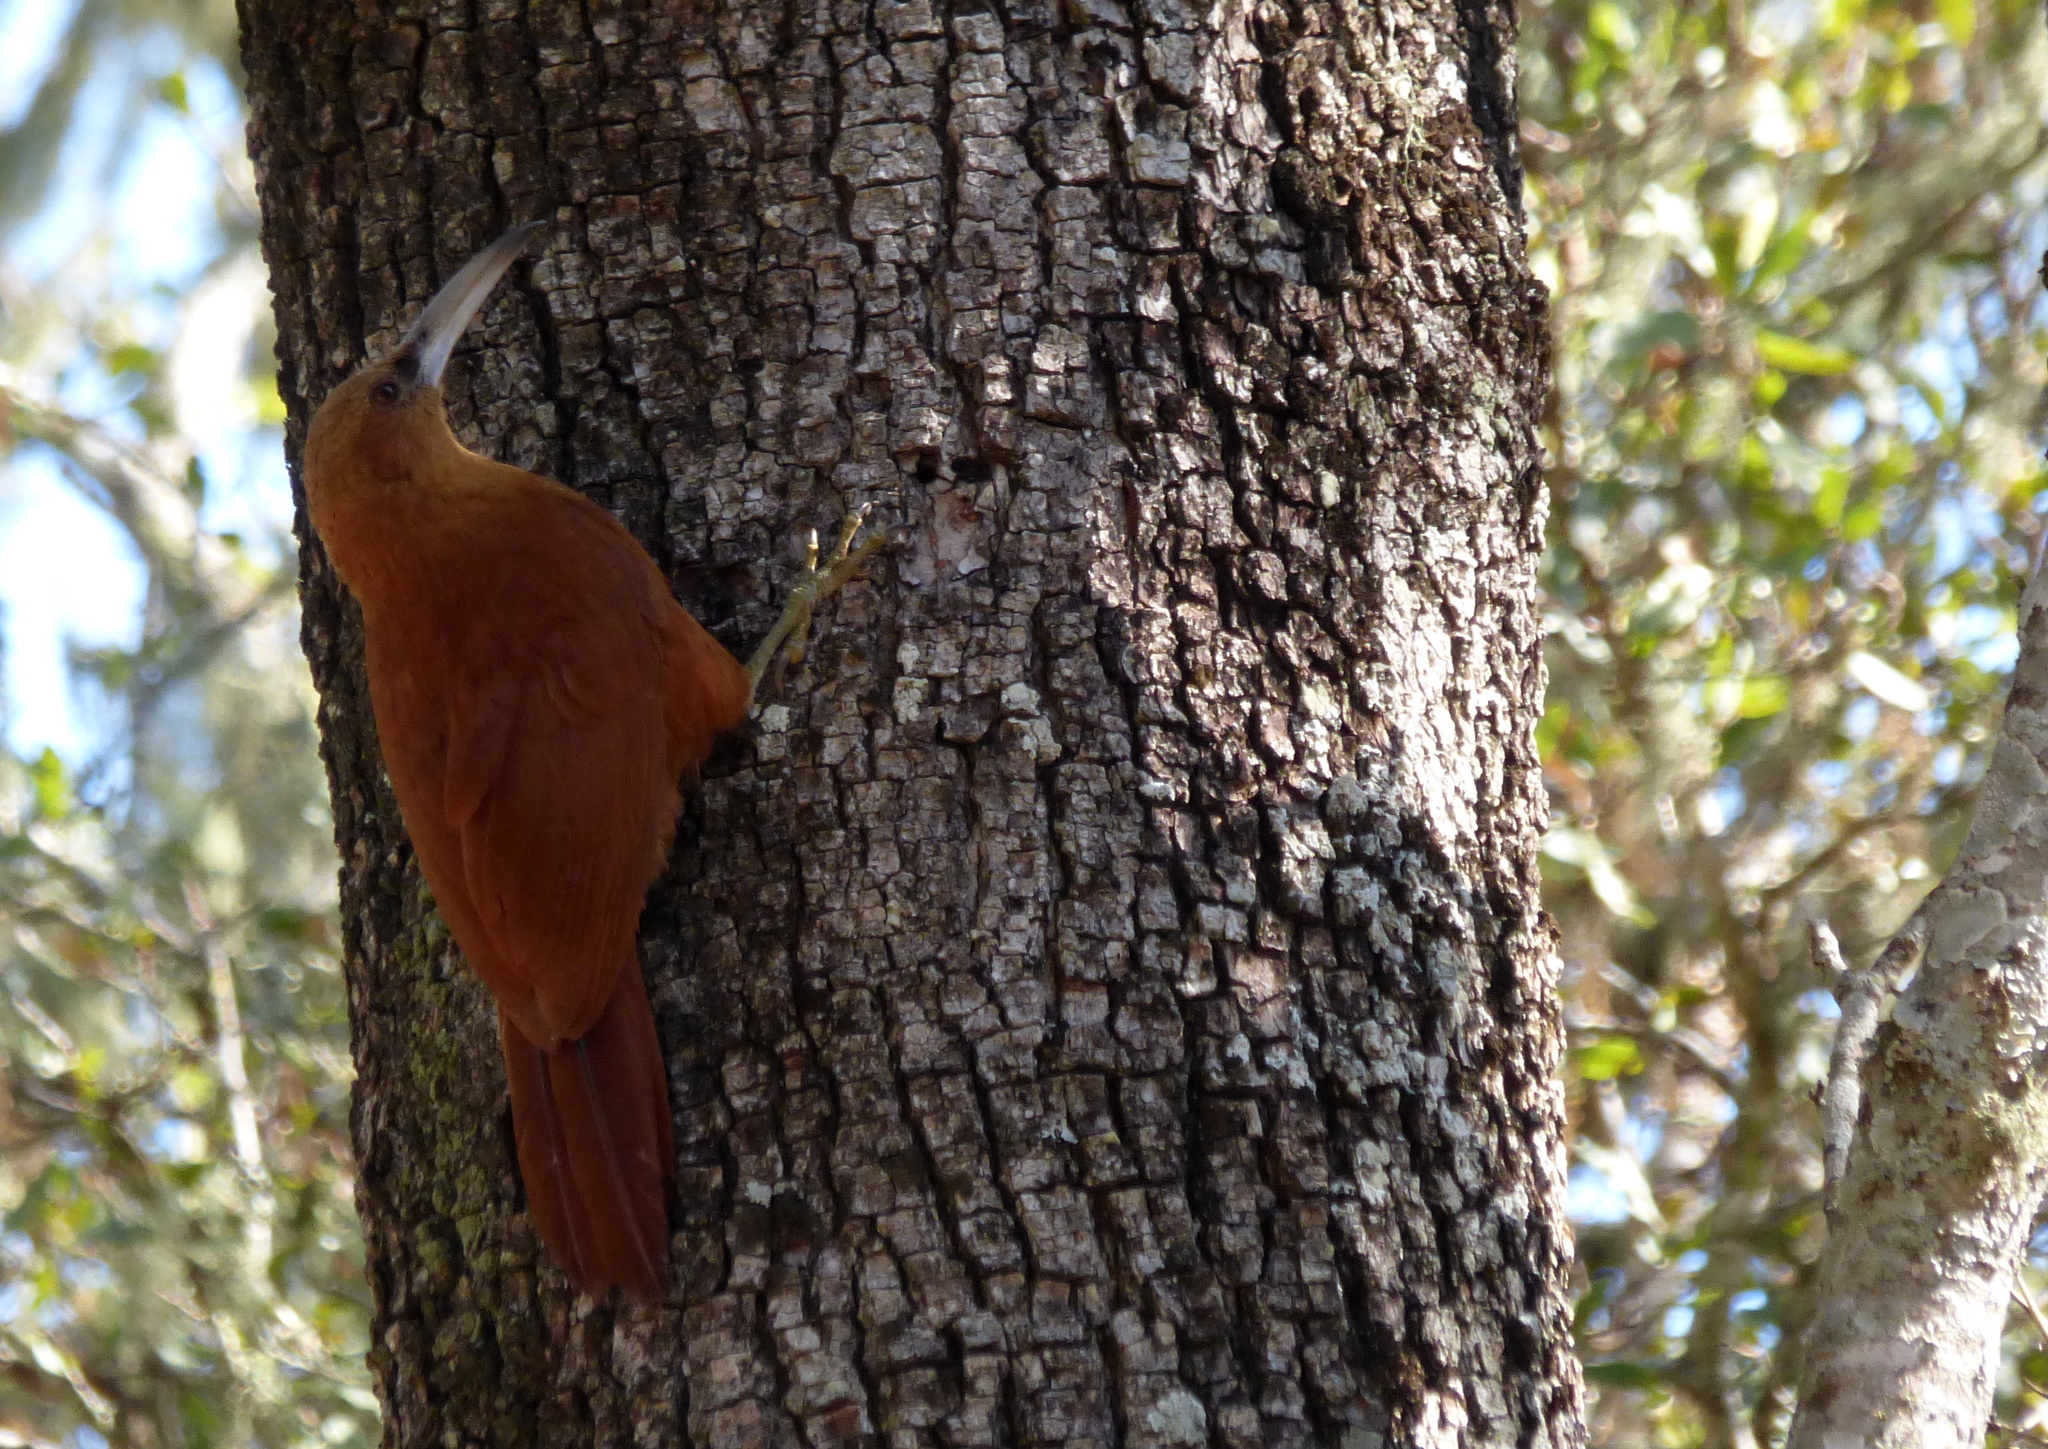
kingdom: Animalia
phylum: Chordata
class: Aves
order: Passeriformes
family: Furnariidae
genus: Xiphocolaptes
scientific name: Xiphocolaptes major
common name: Great rufous woodcreeper
